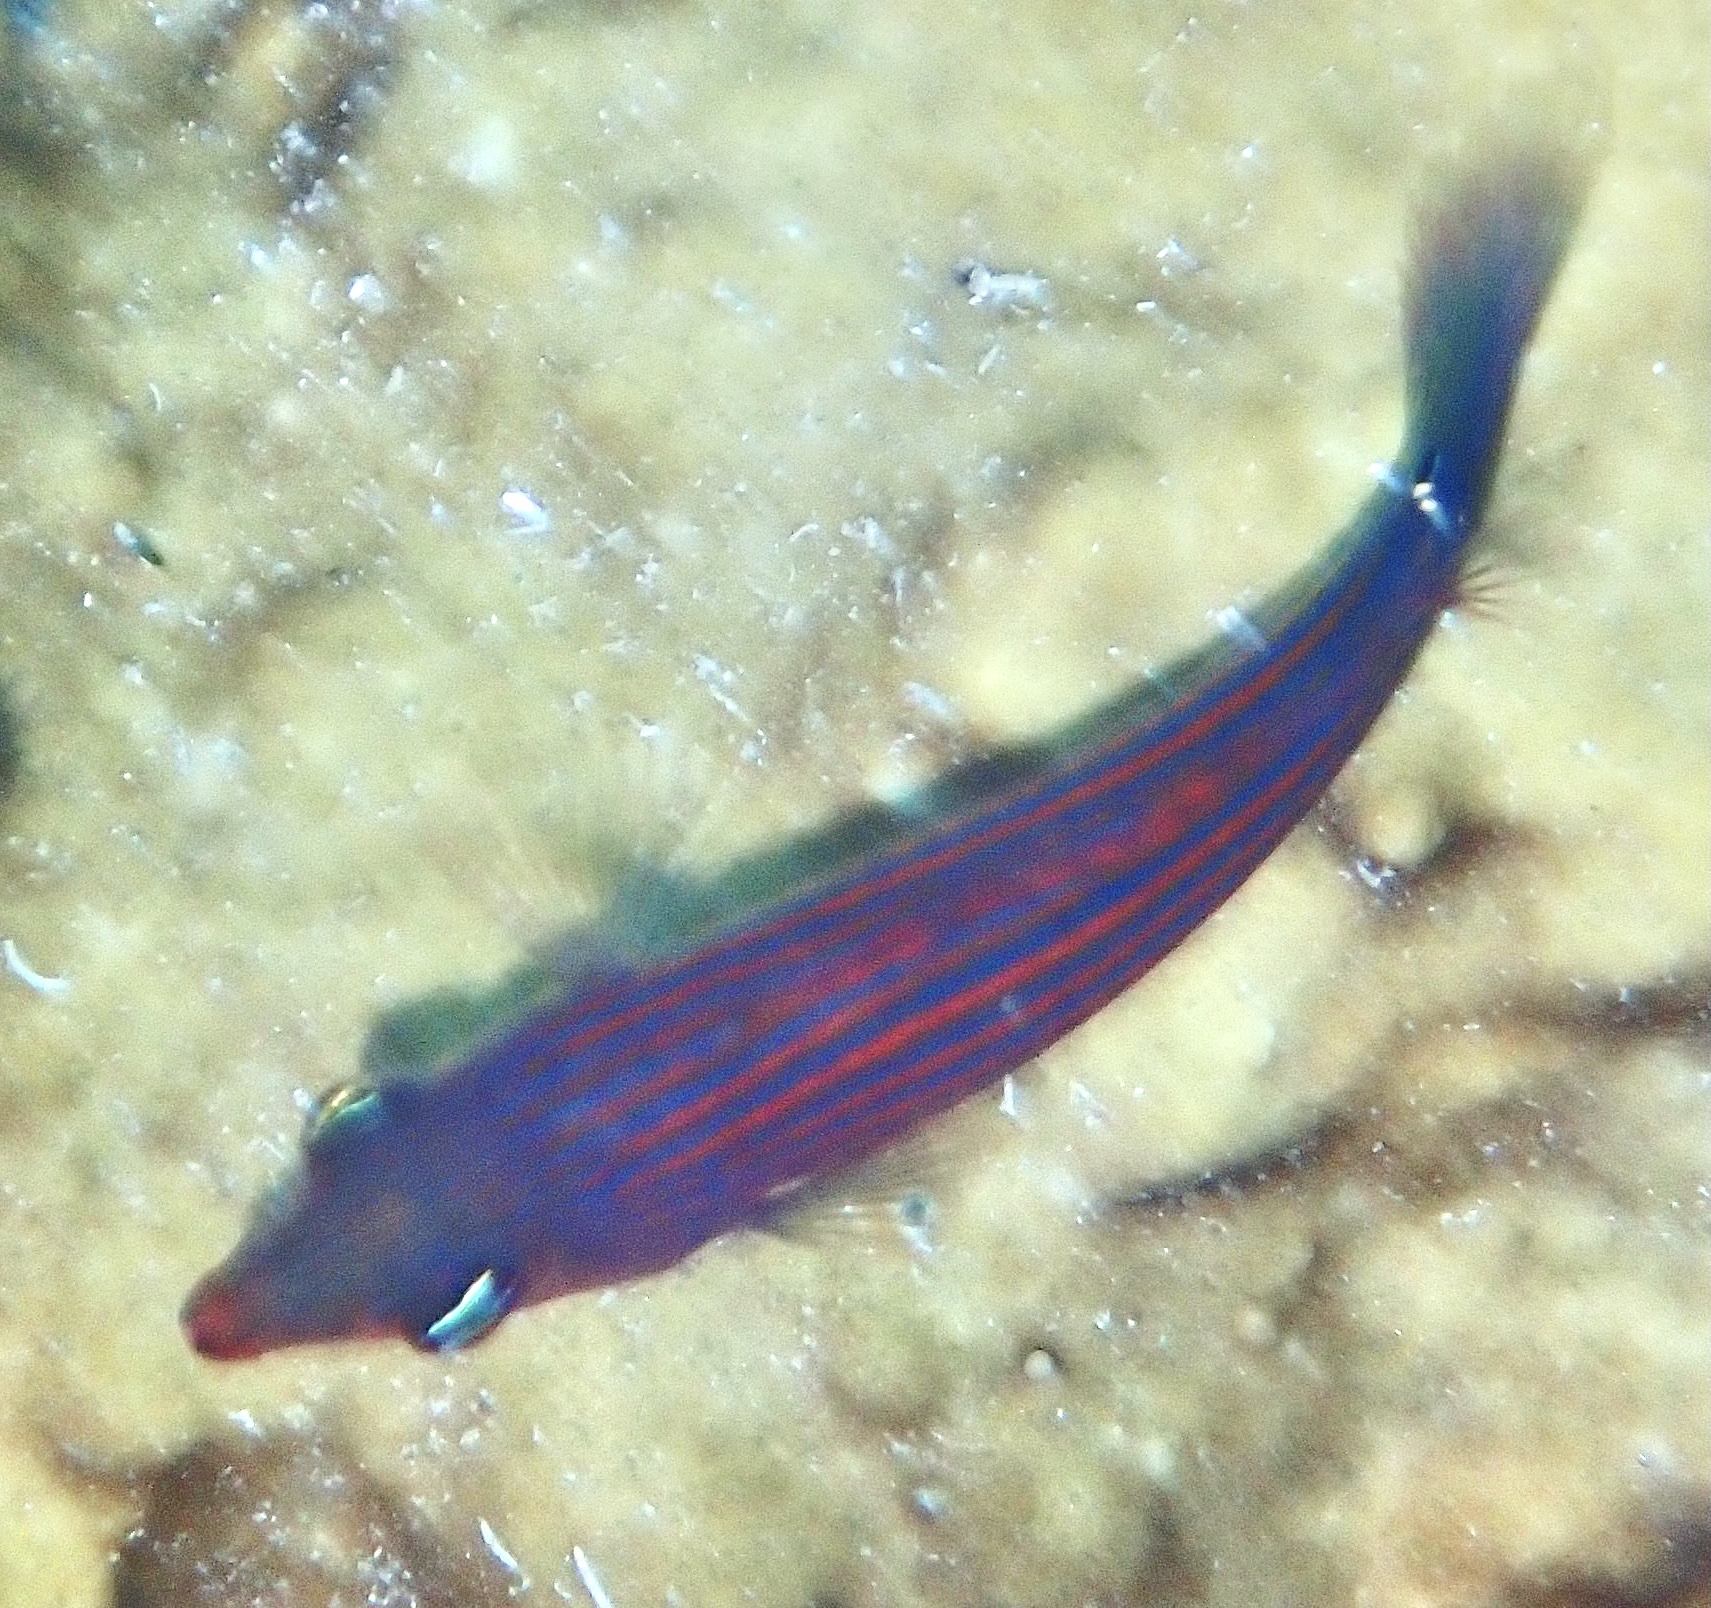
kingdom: Animalia
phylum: Chordata
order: Perciformes
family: Labridae
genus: Pseudocheilinus
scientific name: Pseudocheilinus hexataenia
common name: Sixline wrasse
